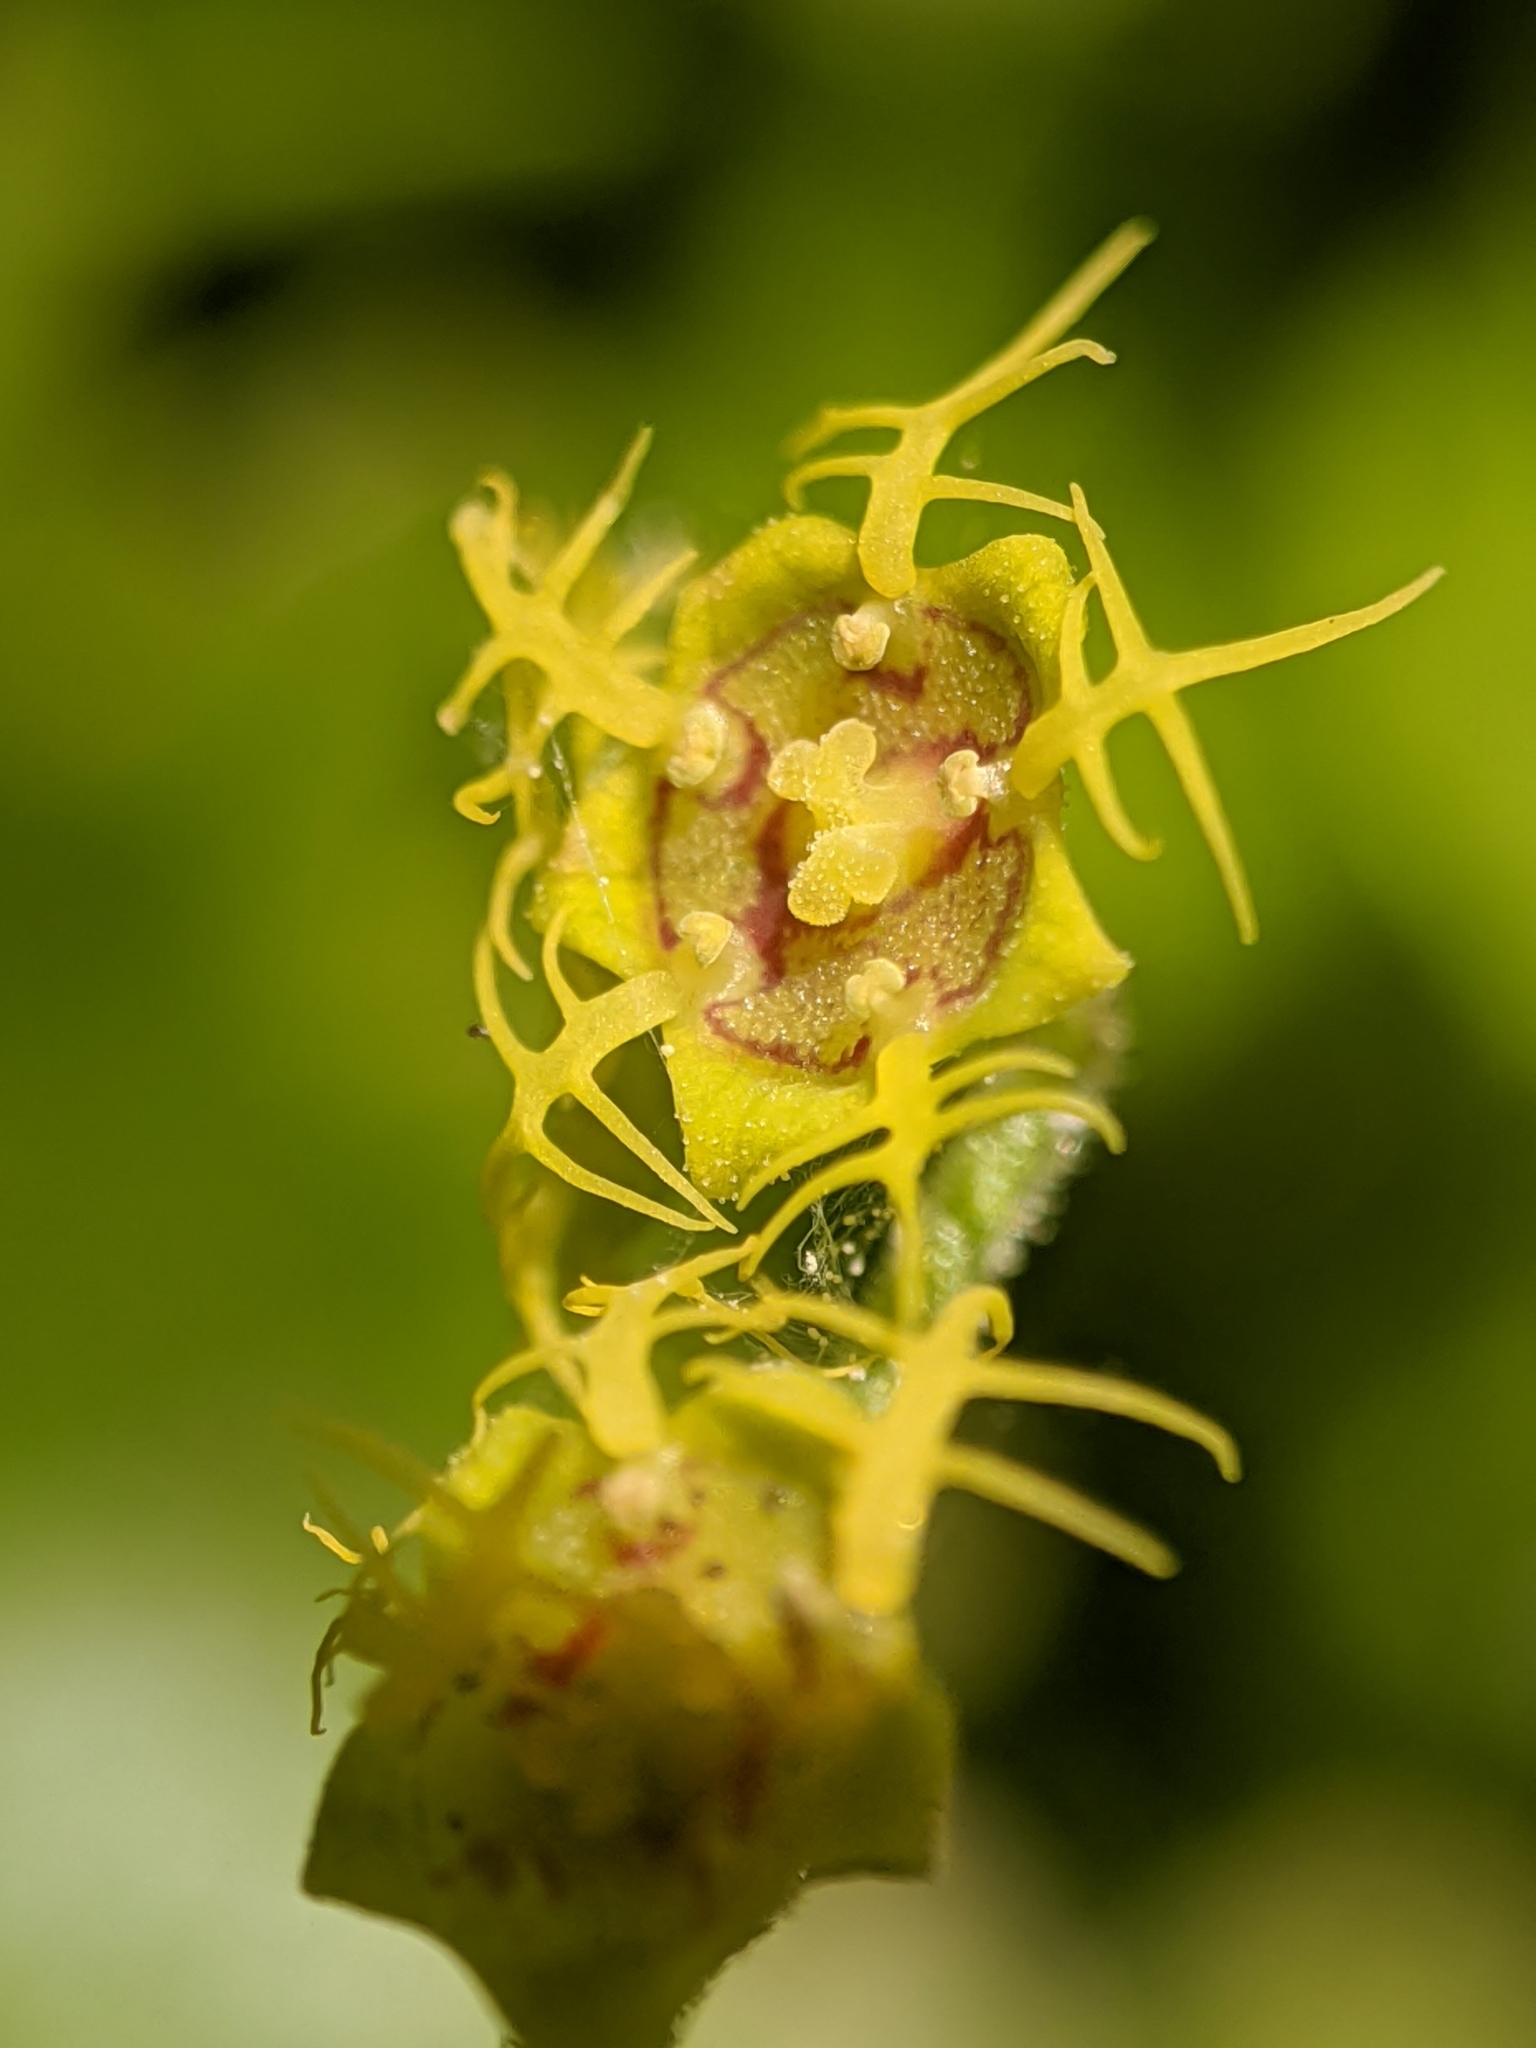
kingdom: Plantae
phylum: Tracheophyta
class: Magnoliopsida
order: Saxifragales
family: Saxifragaceae
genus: Pectiantia
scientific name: Pectiantia pentandra
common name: Alpine bishop's-cap
